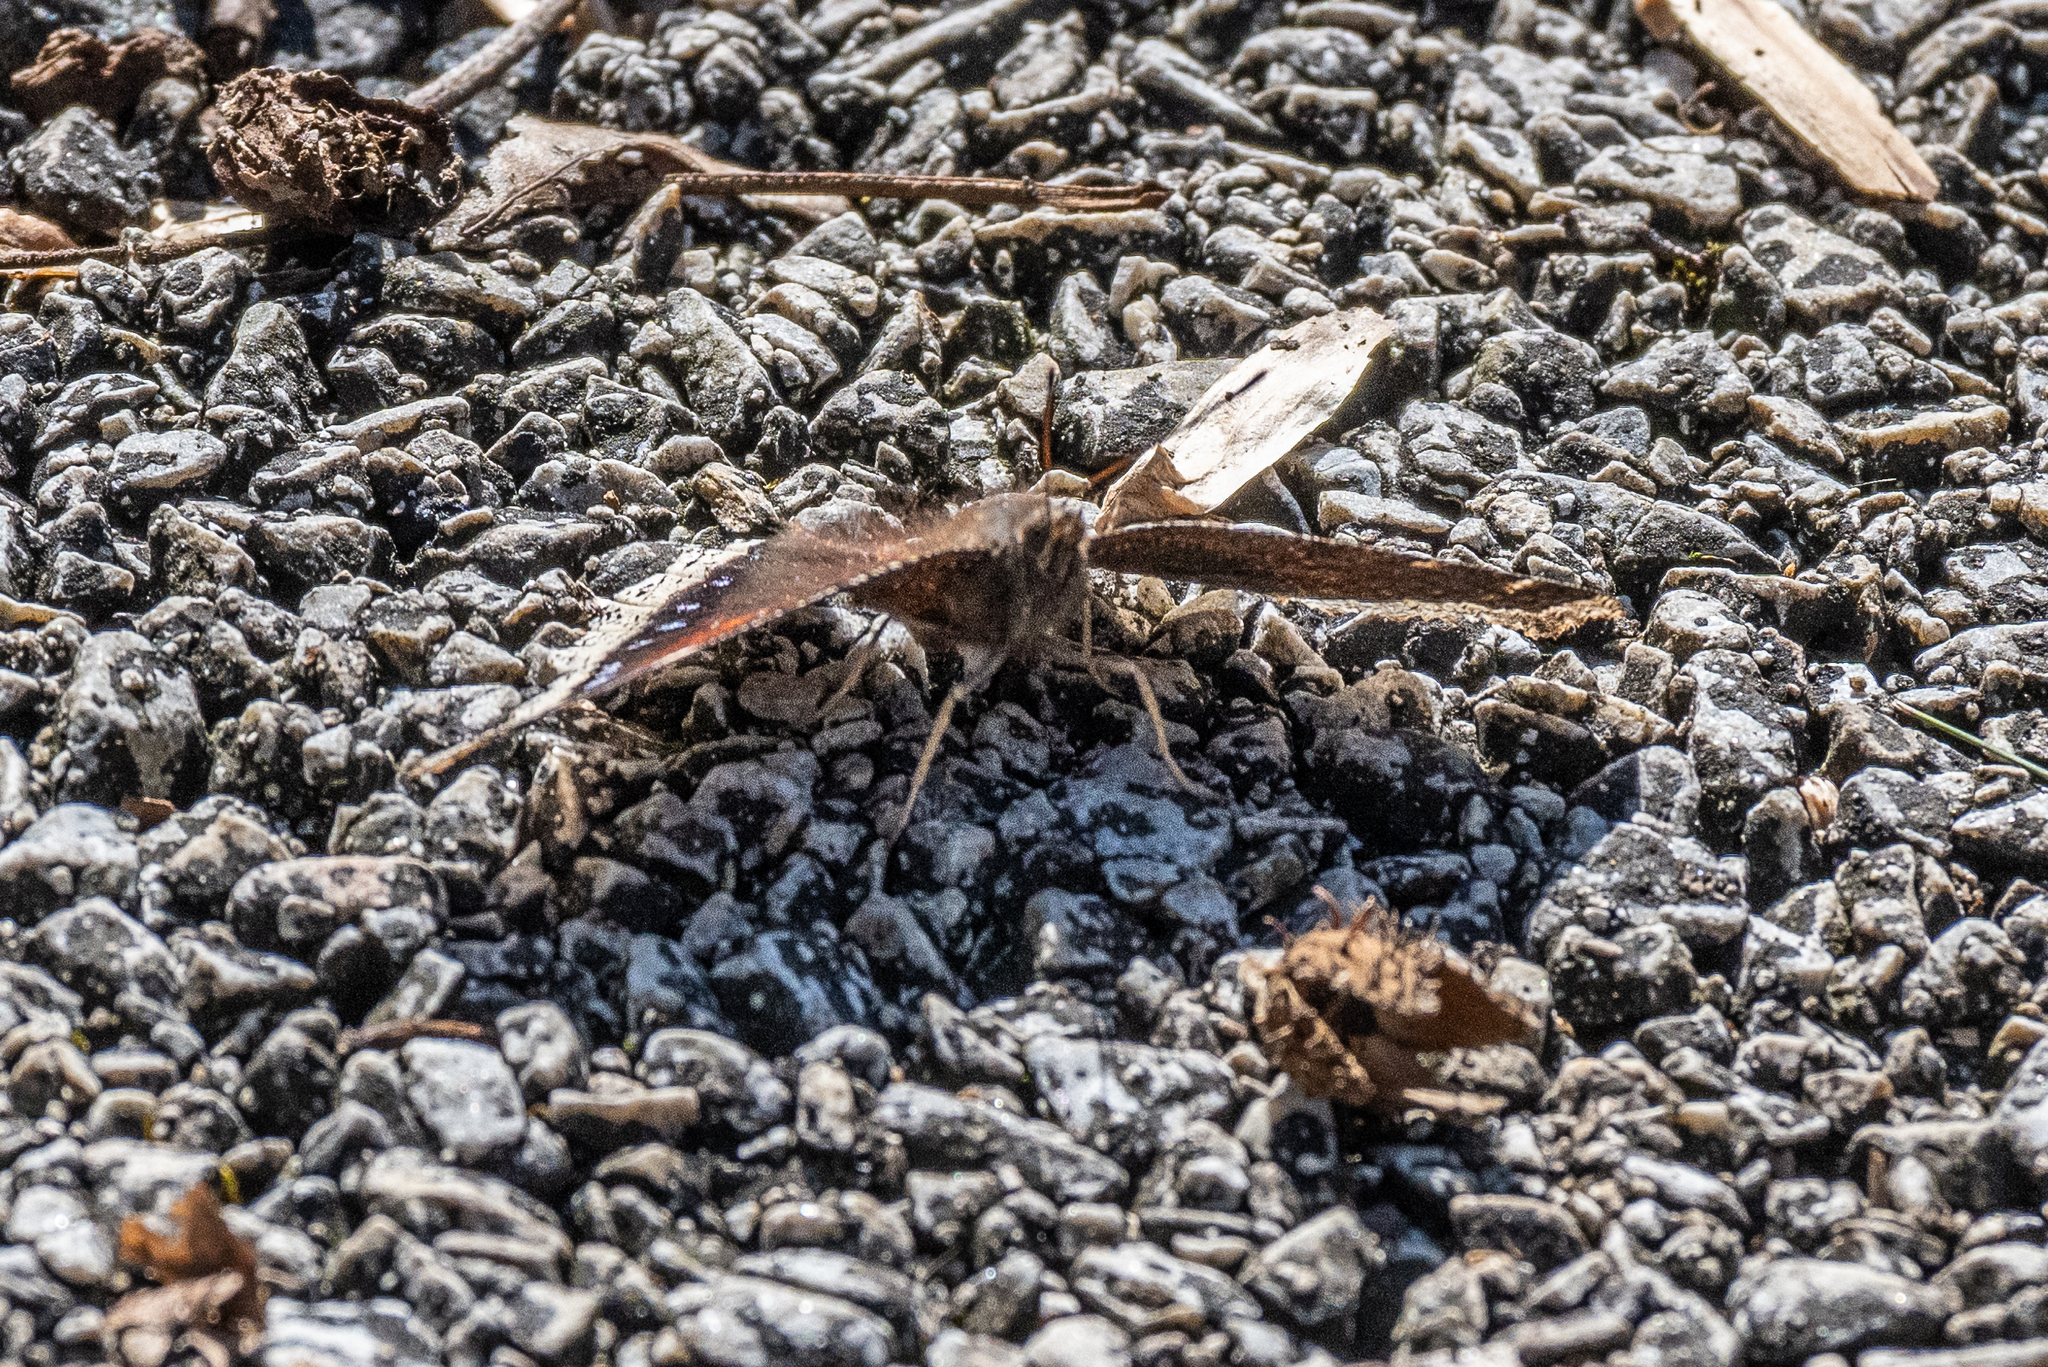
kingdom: Animalia
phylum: Arthropoda
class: Insecta
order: Lepidoptera
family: Nymphalidae
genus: Nymphalis
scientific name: Nymphalis antiopa
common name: Camberwell beauty
